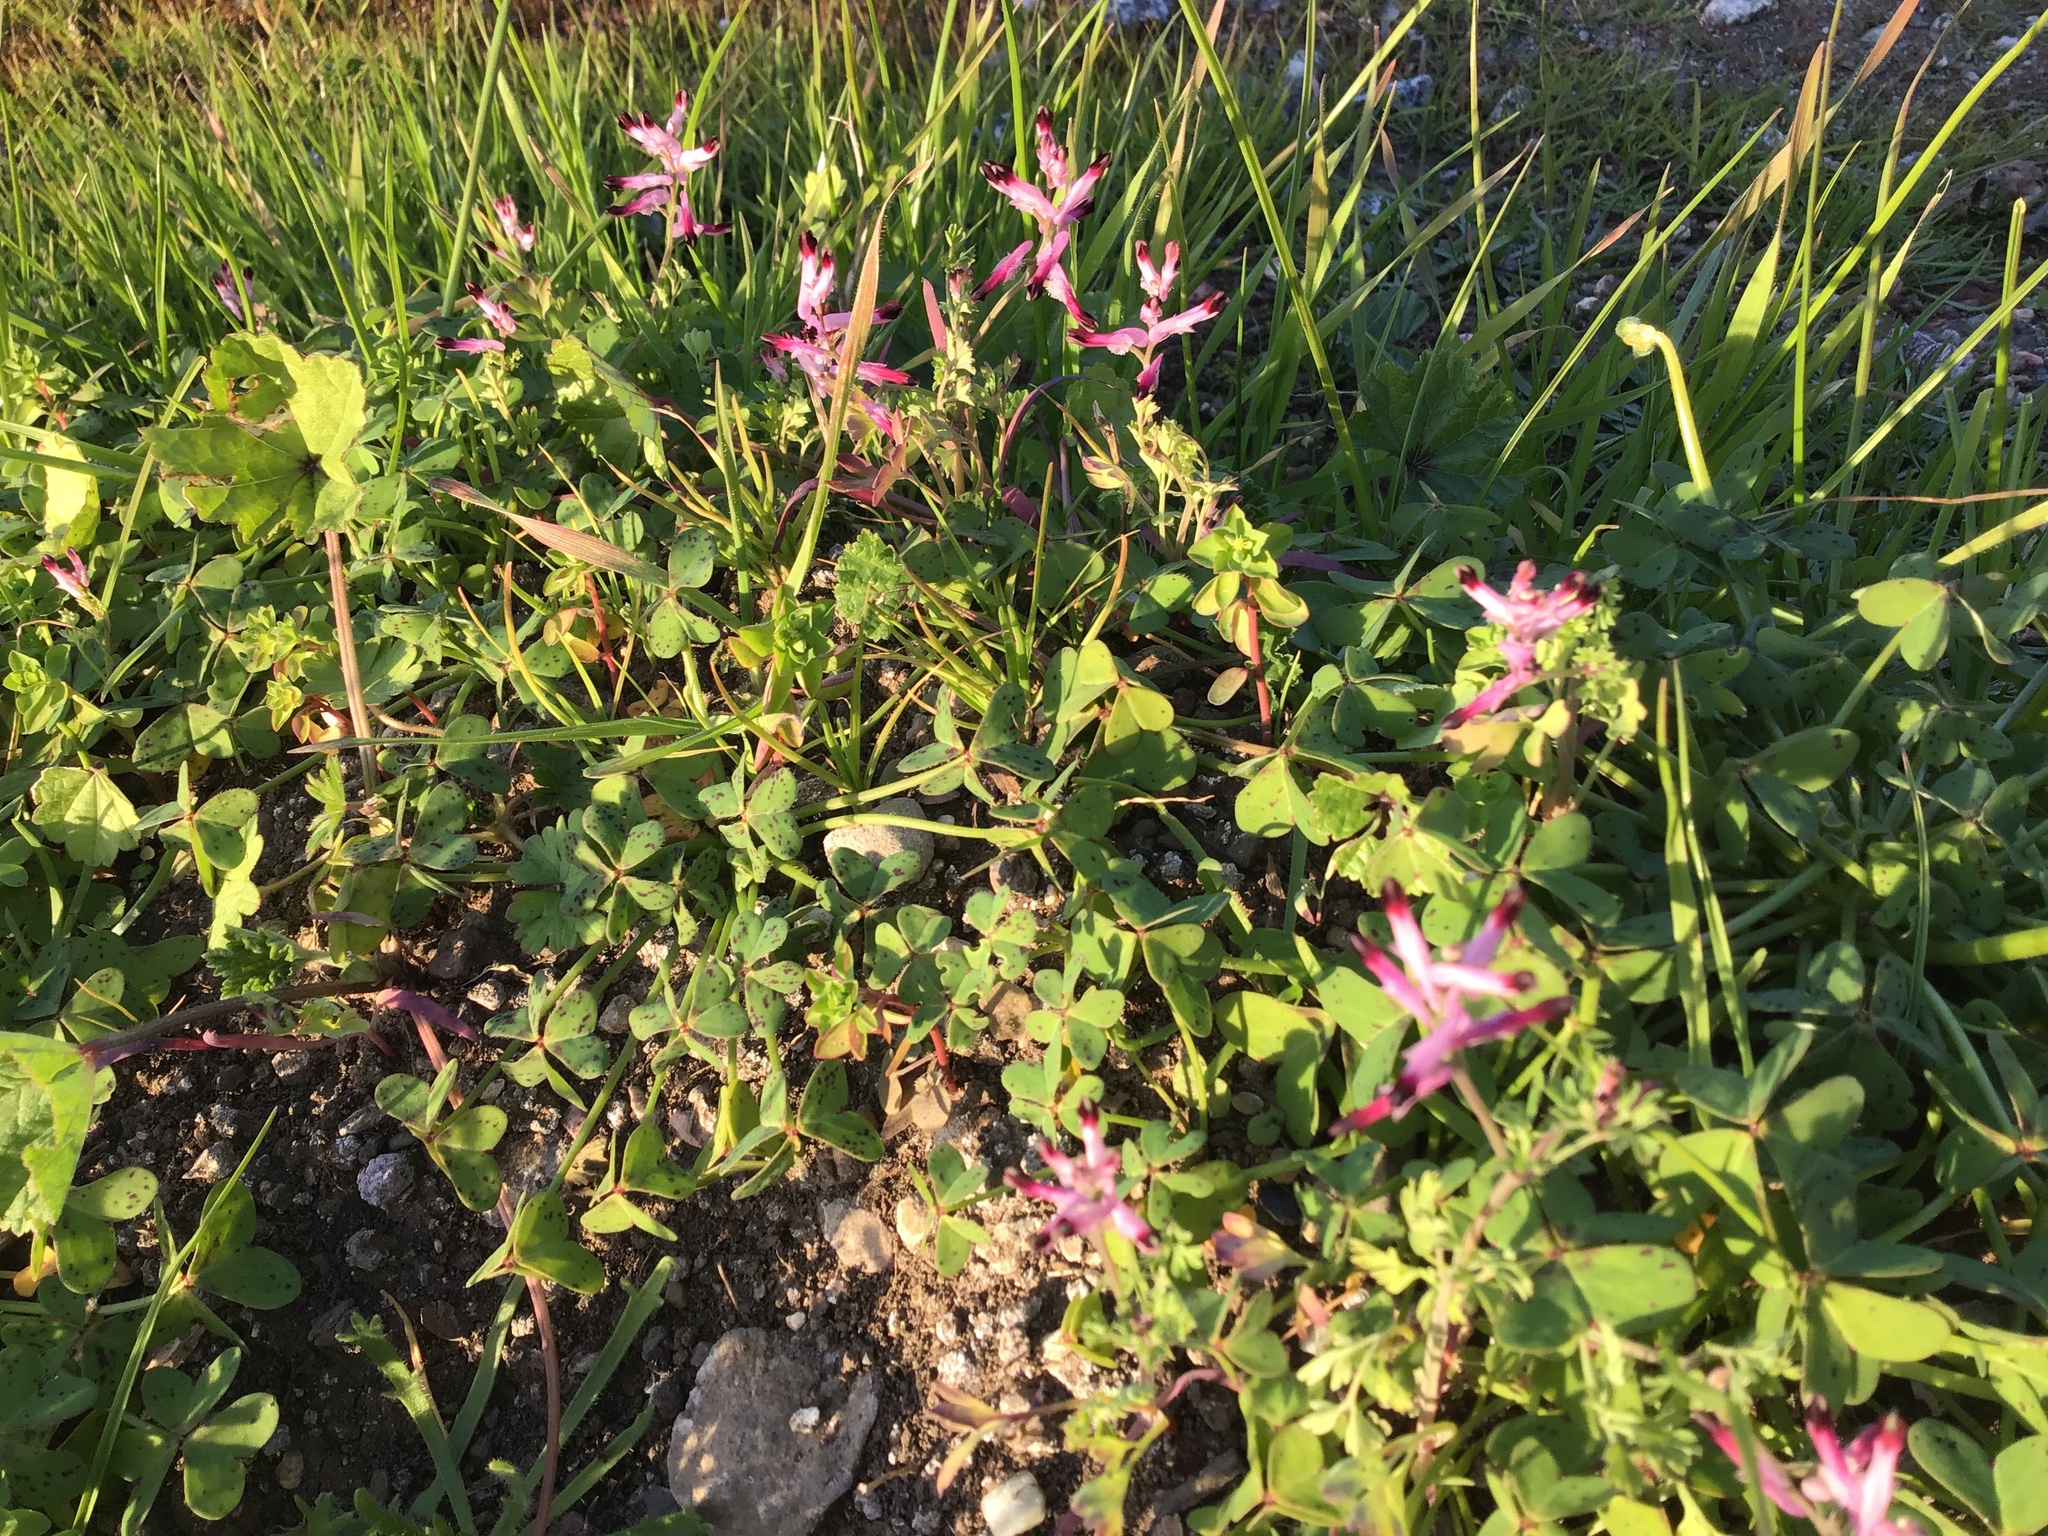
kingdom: Plantae
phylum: Tracheophyta
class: Magnoliopsida
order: Ranunculales
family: Papaveraceae
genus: Fumaria
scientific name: Fumaria muralis
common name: Common ramping-fumitory
